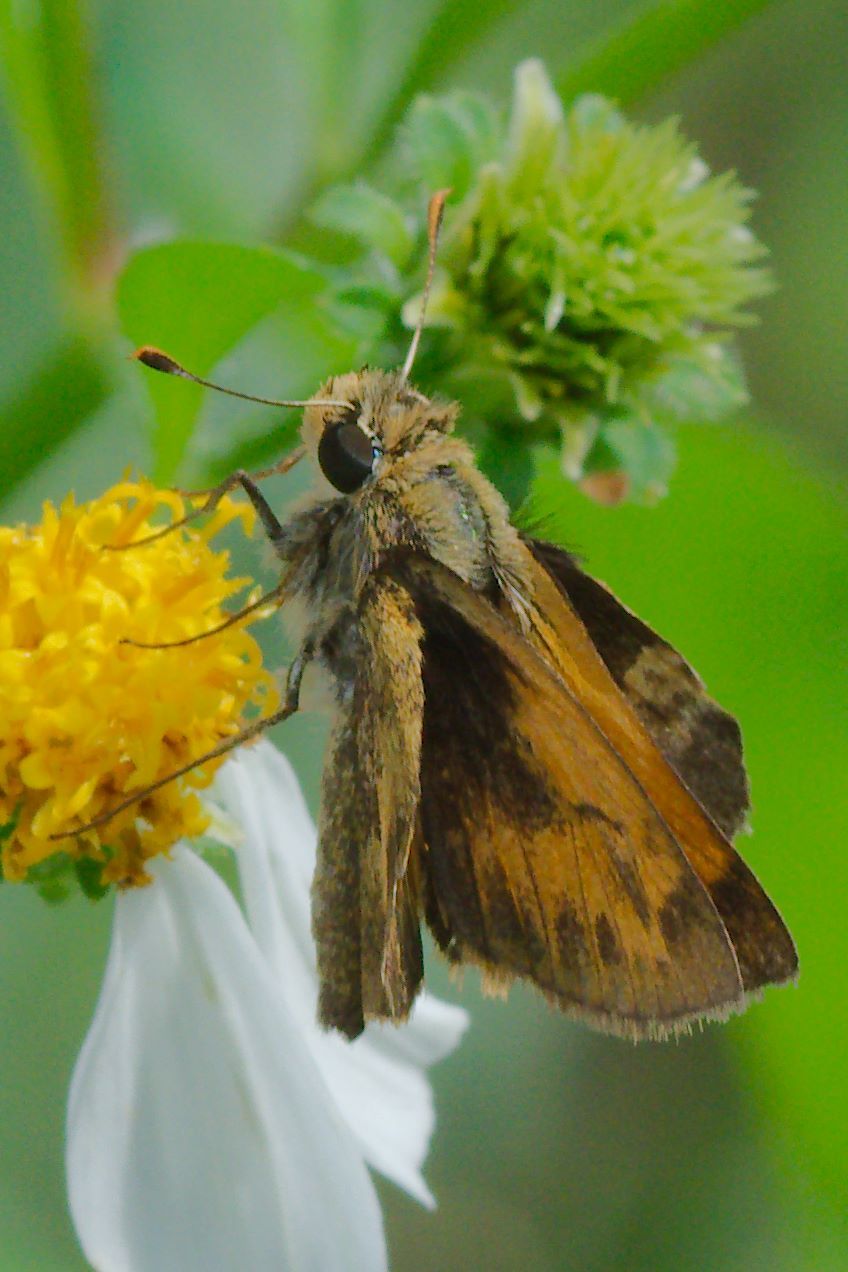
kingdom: Animalia
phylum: Arthropoda
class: Insecta
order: Lepidoptera
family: Hesperiidae
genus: Polites
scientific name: Polites vibex
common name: Whirlabout
